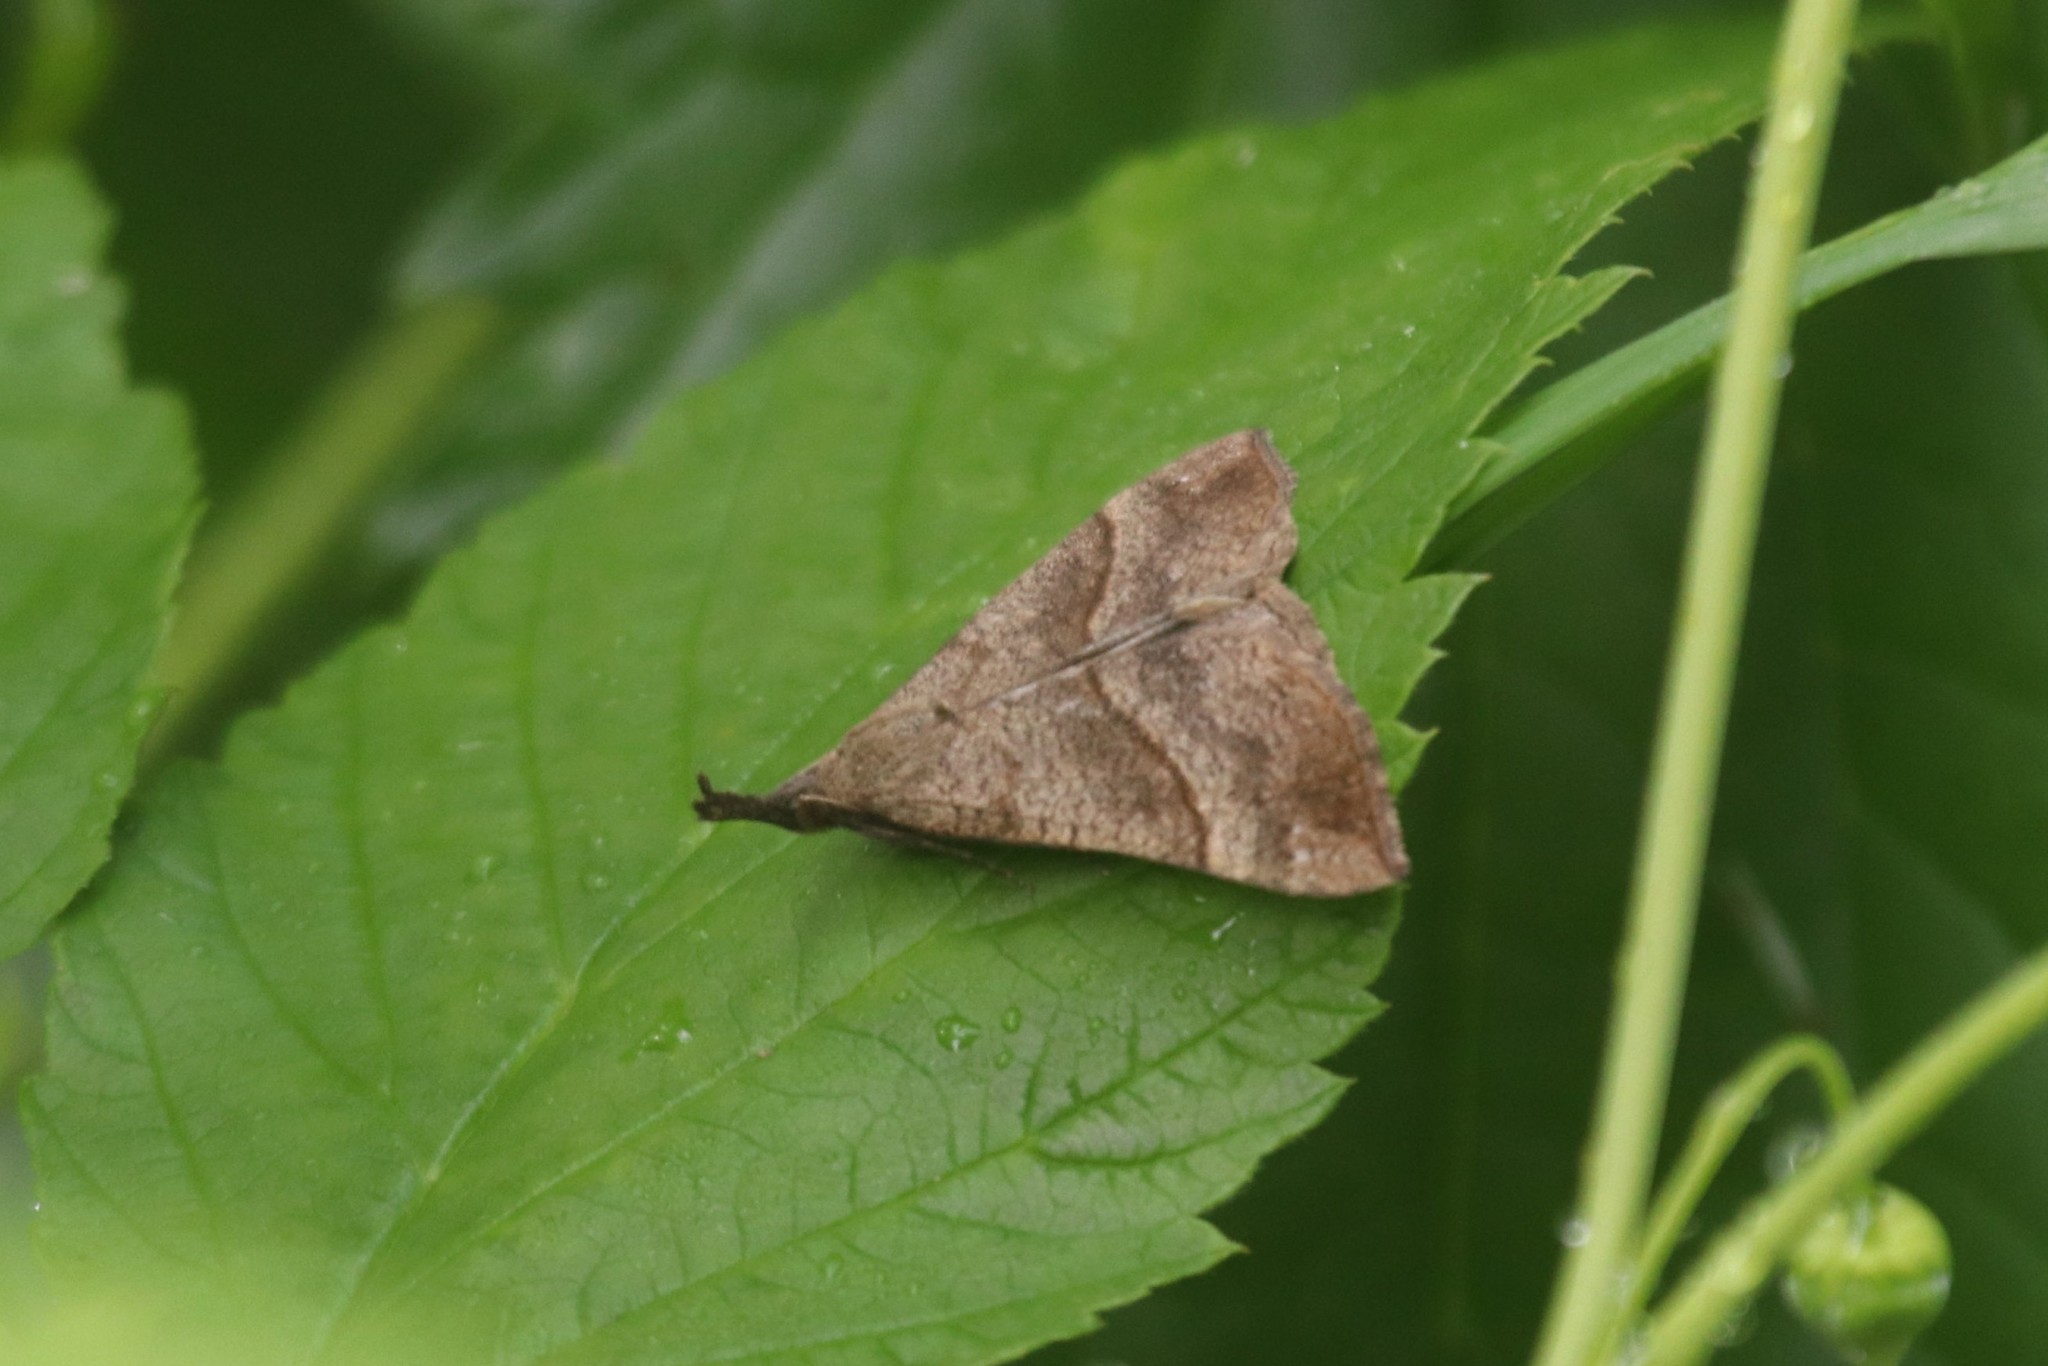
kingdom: Animalia
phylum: Arthropoda
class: Insecta
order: Lepidoptera
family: Erebidae
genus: Hypena
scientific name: Hypena proboscidalis
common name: Snout
